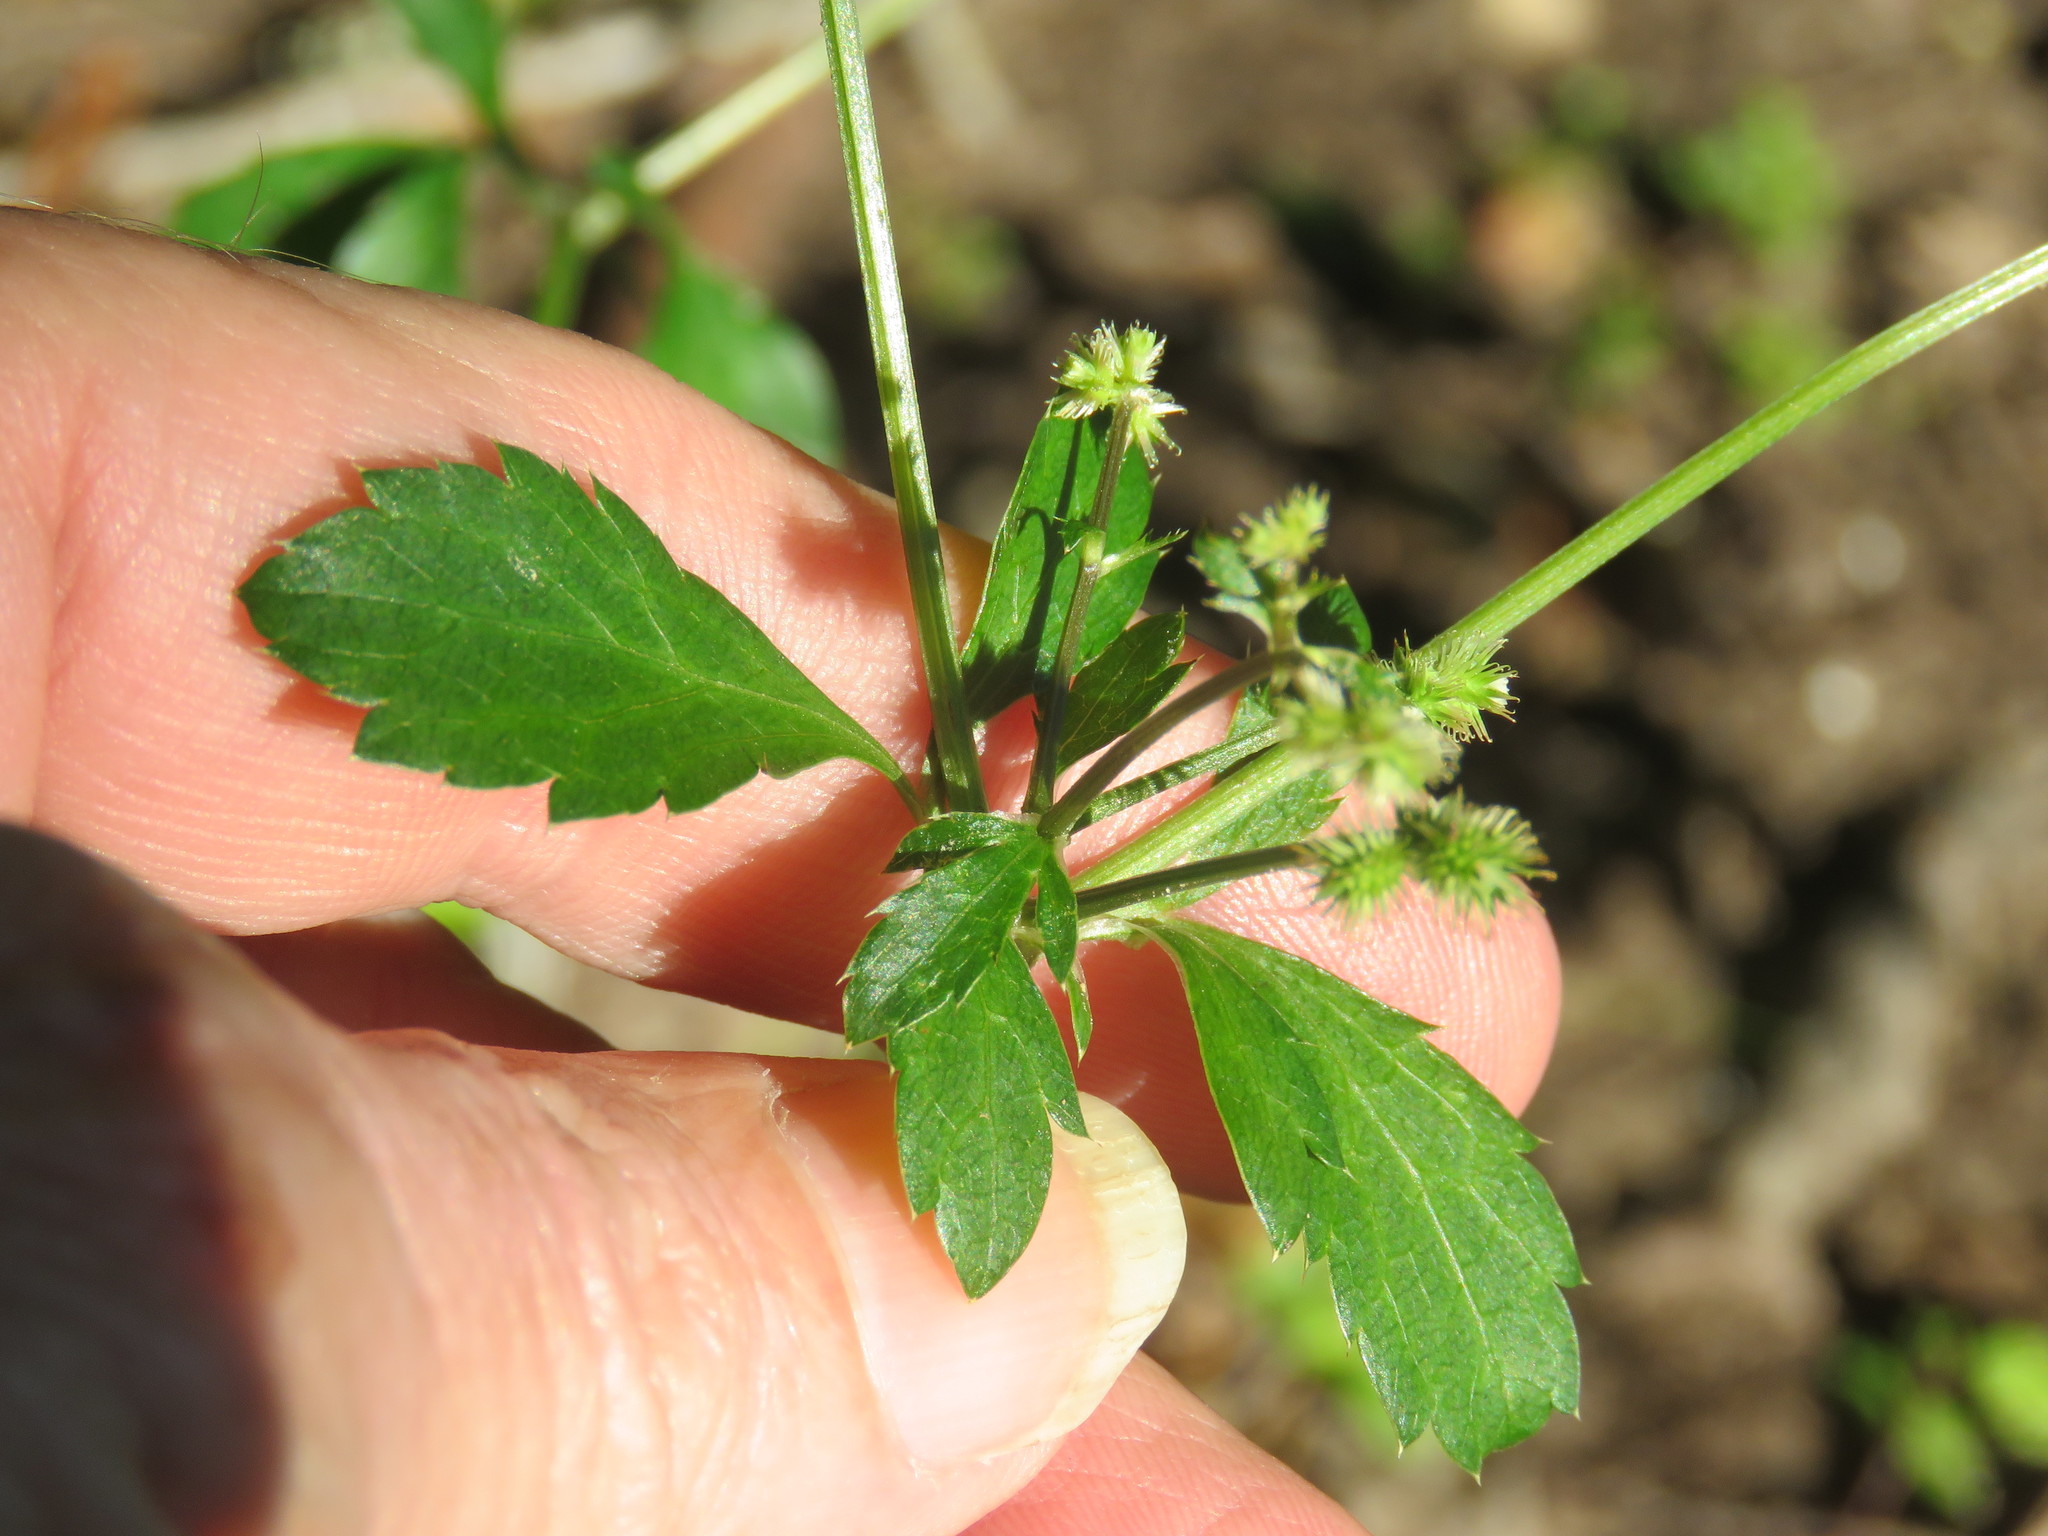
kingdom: Plantae
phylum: Tracheophyta
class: Magnoliopsida
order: Apiales
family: Apiaceae
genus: Sanicula
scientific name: Sanicula canadensis
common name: Canada sanicle
